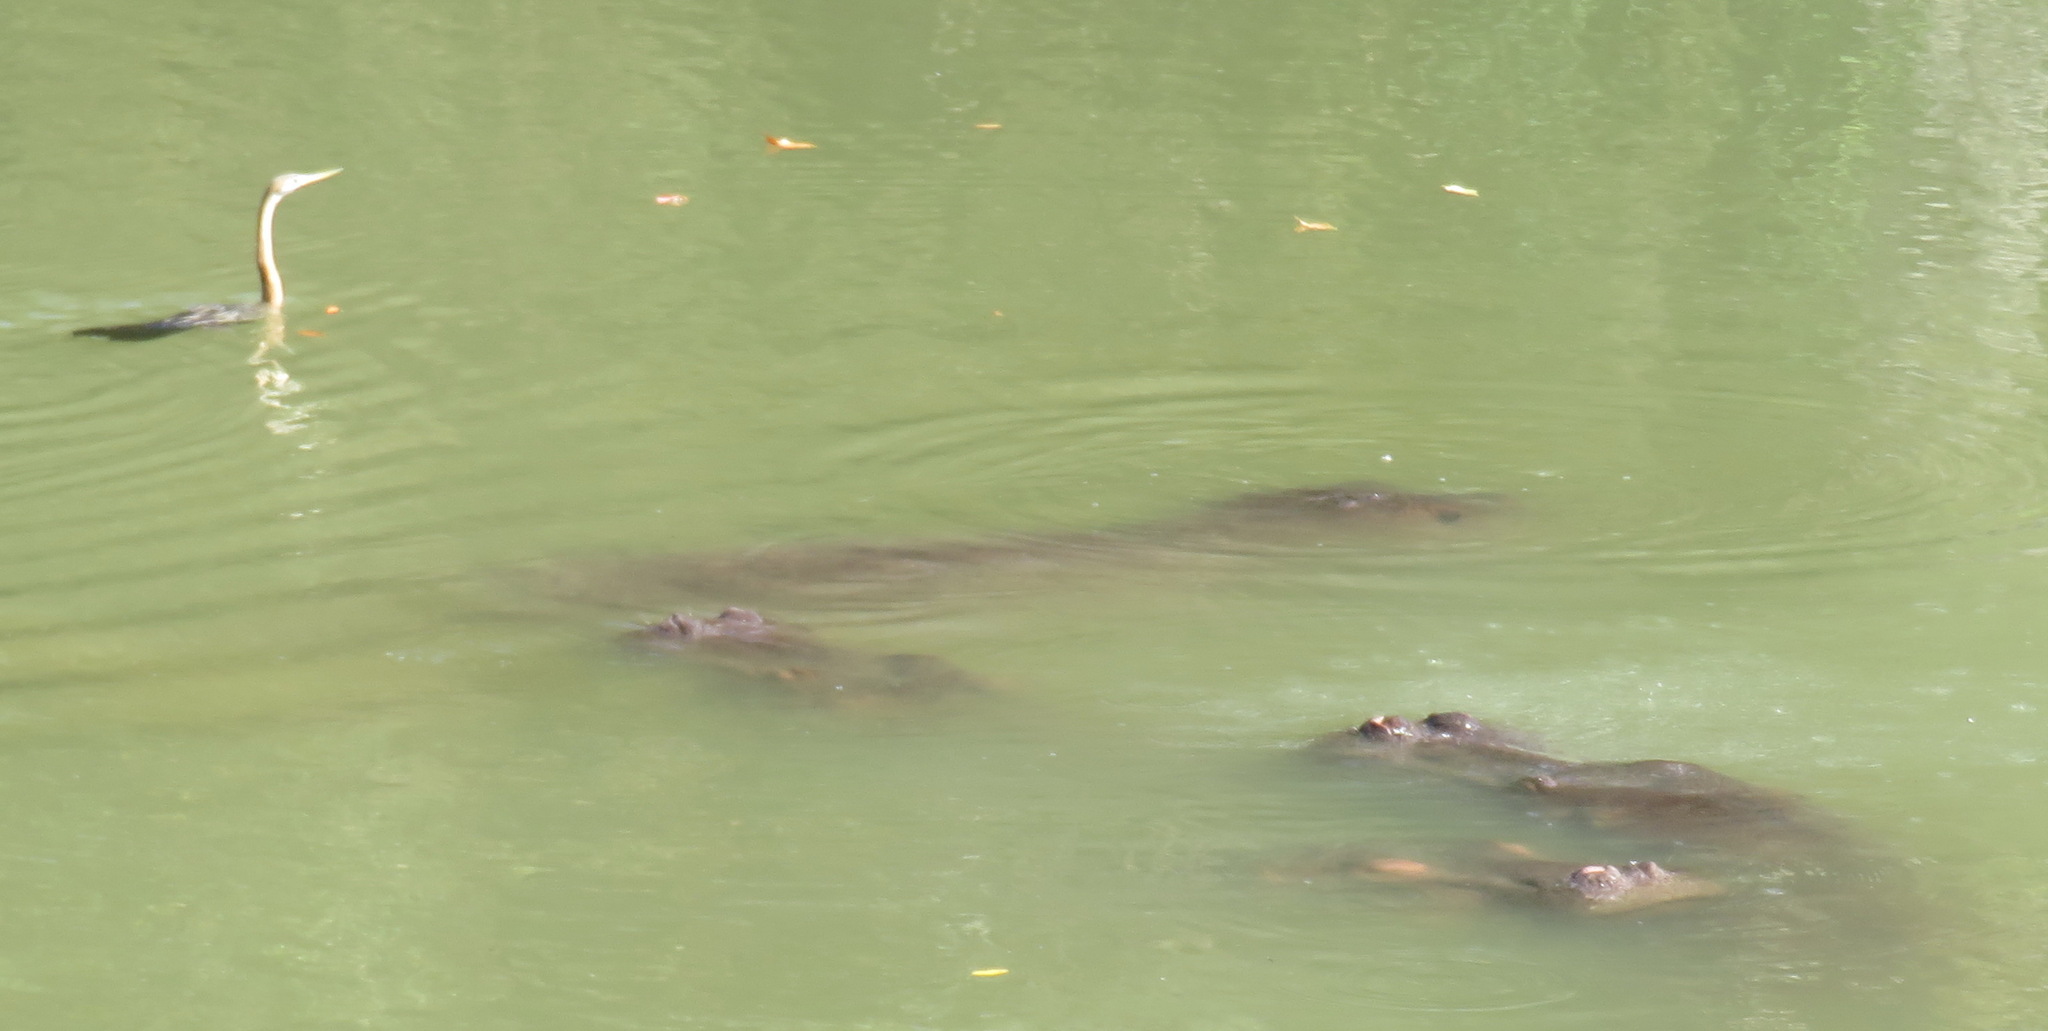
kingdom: Animalia
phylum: Chordata
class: Mammalia
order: Artiodactyla
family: Hippopotamidae
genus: Hippopotamus
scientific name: Hippopotamus amphibius
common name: Common hippopotamus
